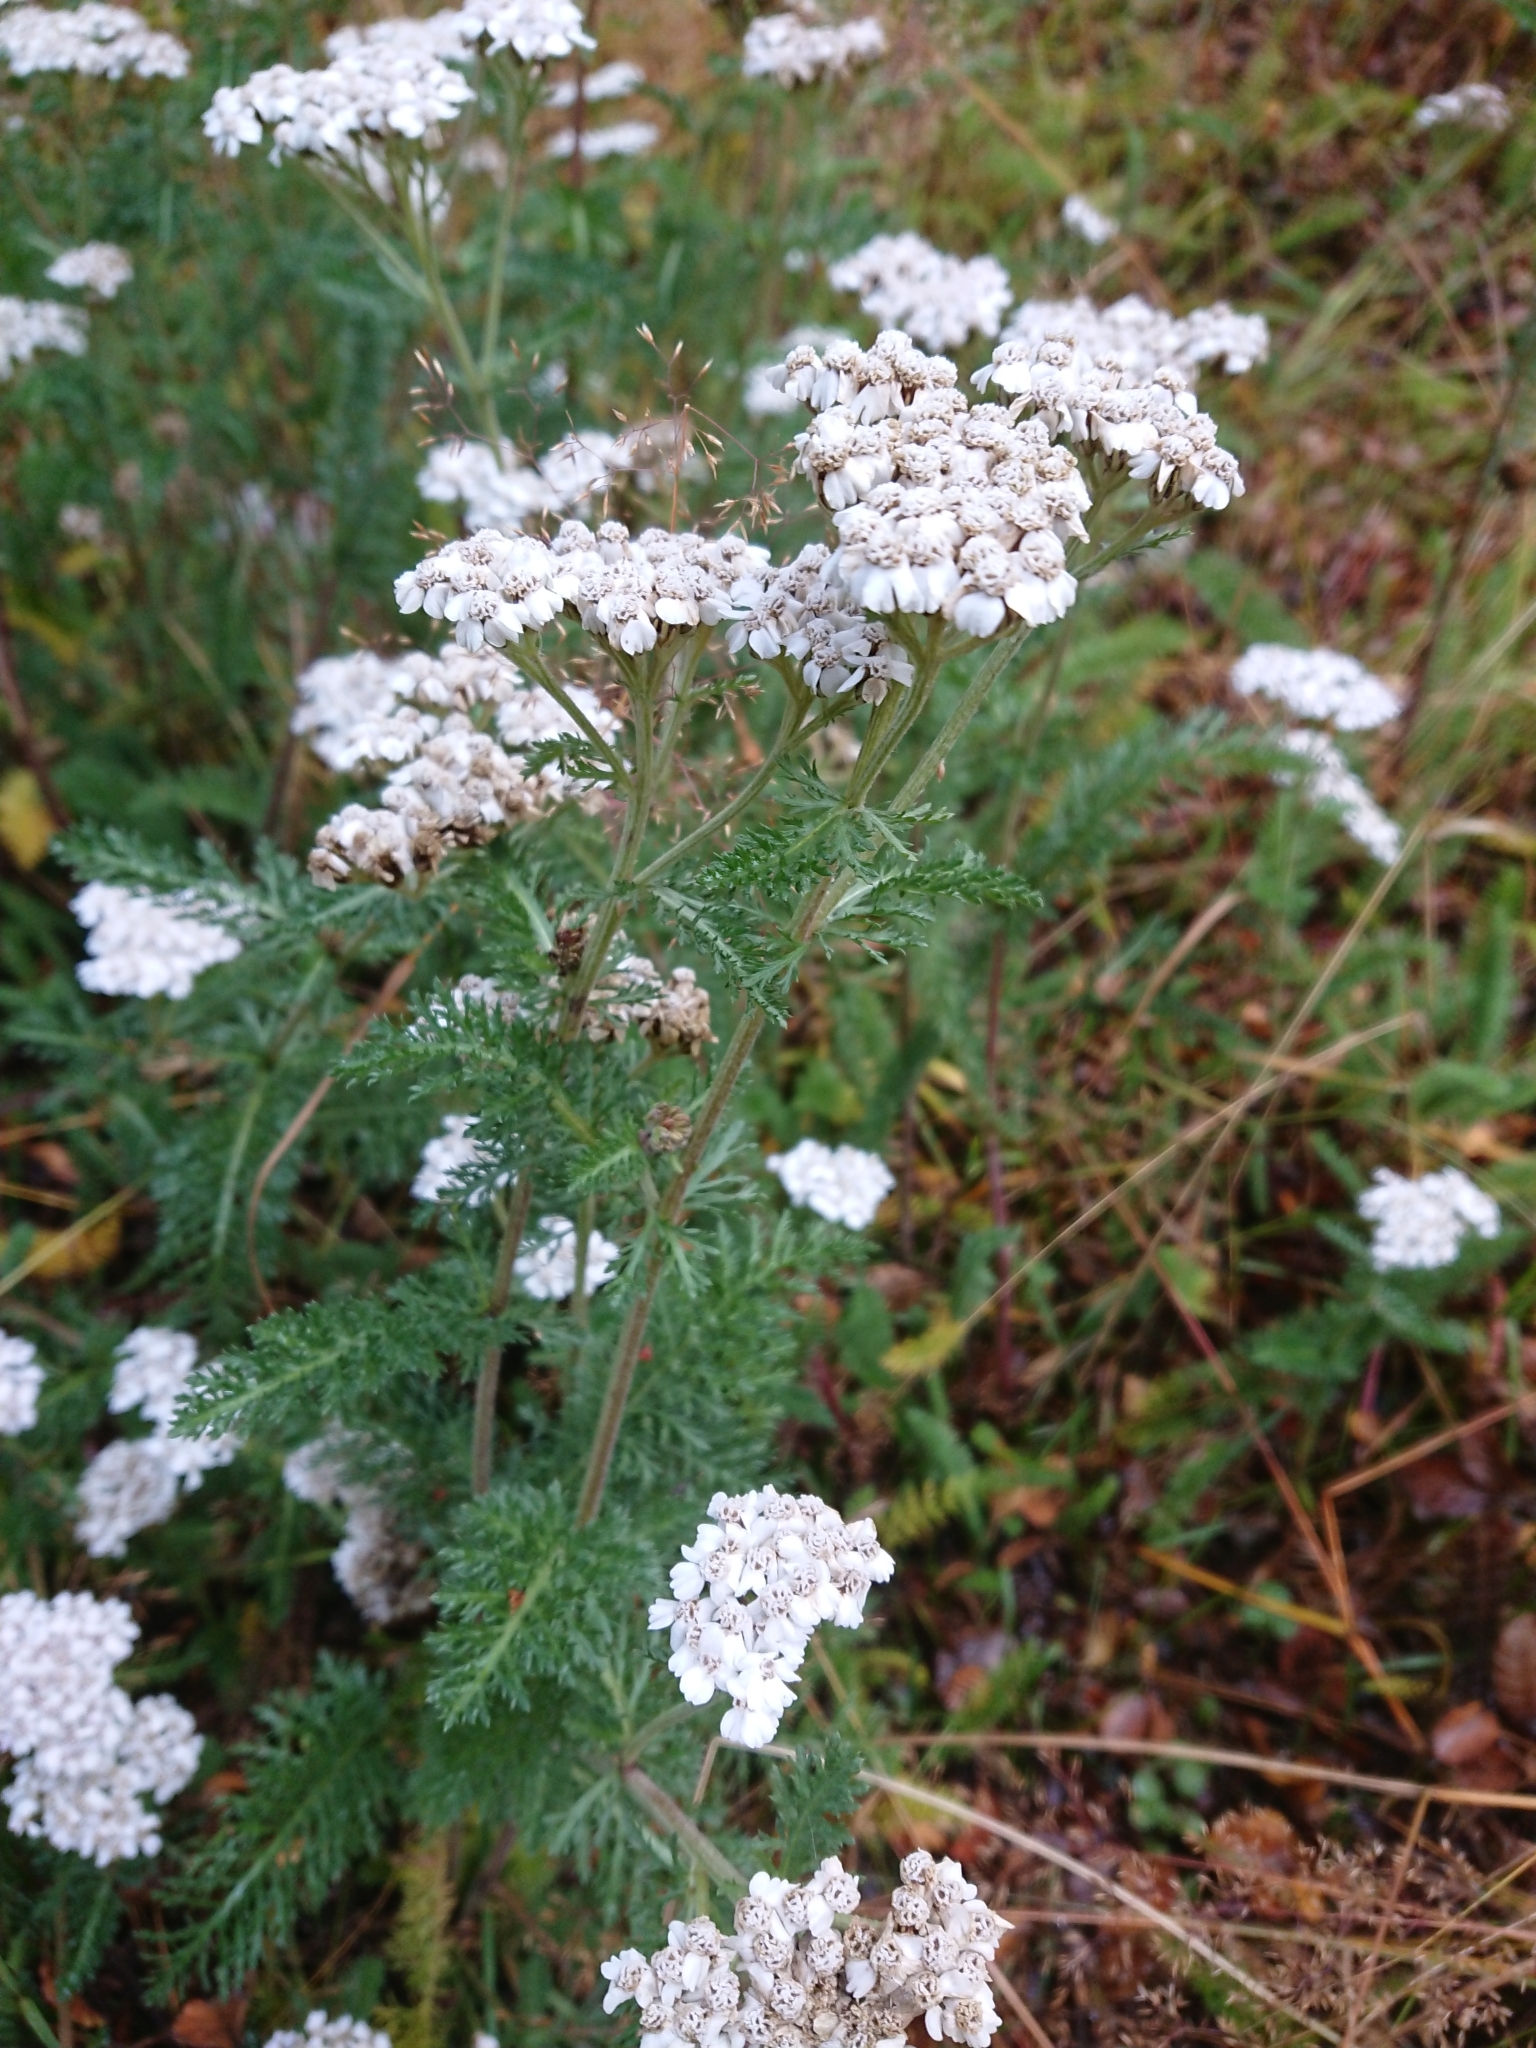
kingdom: Plantae
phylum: Tracheophyta
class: Magnoliopsida
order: Asterales
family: Asteraceae
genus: Achillea
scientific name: Achillea millefolium
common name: Yarrow
